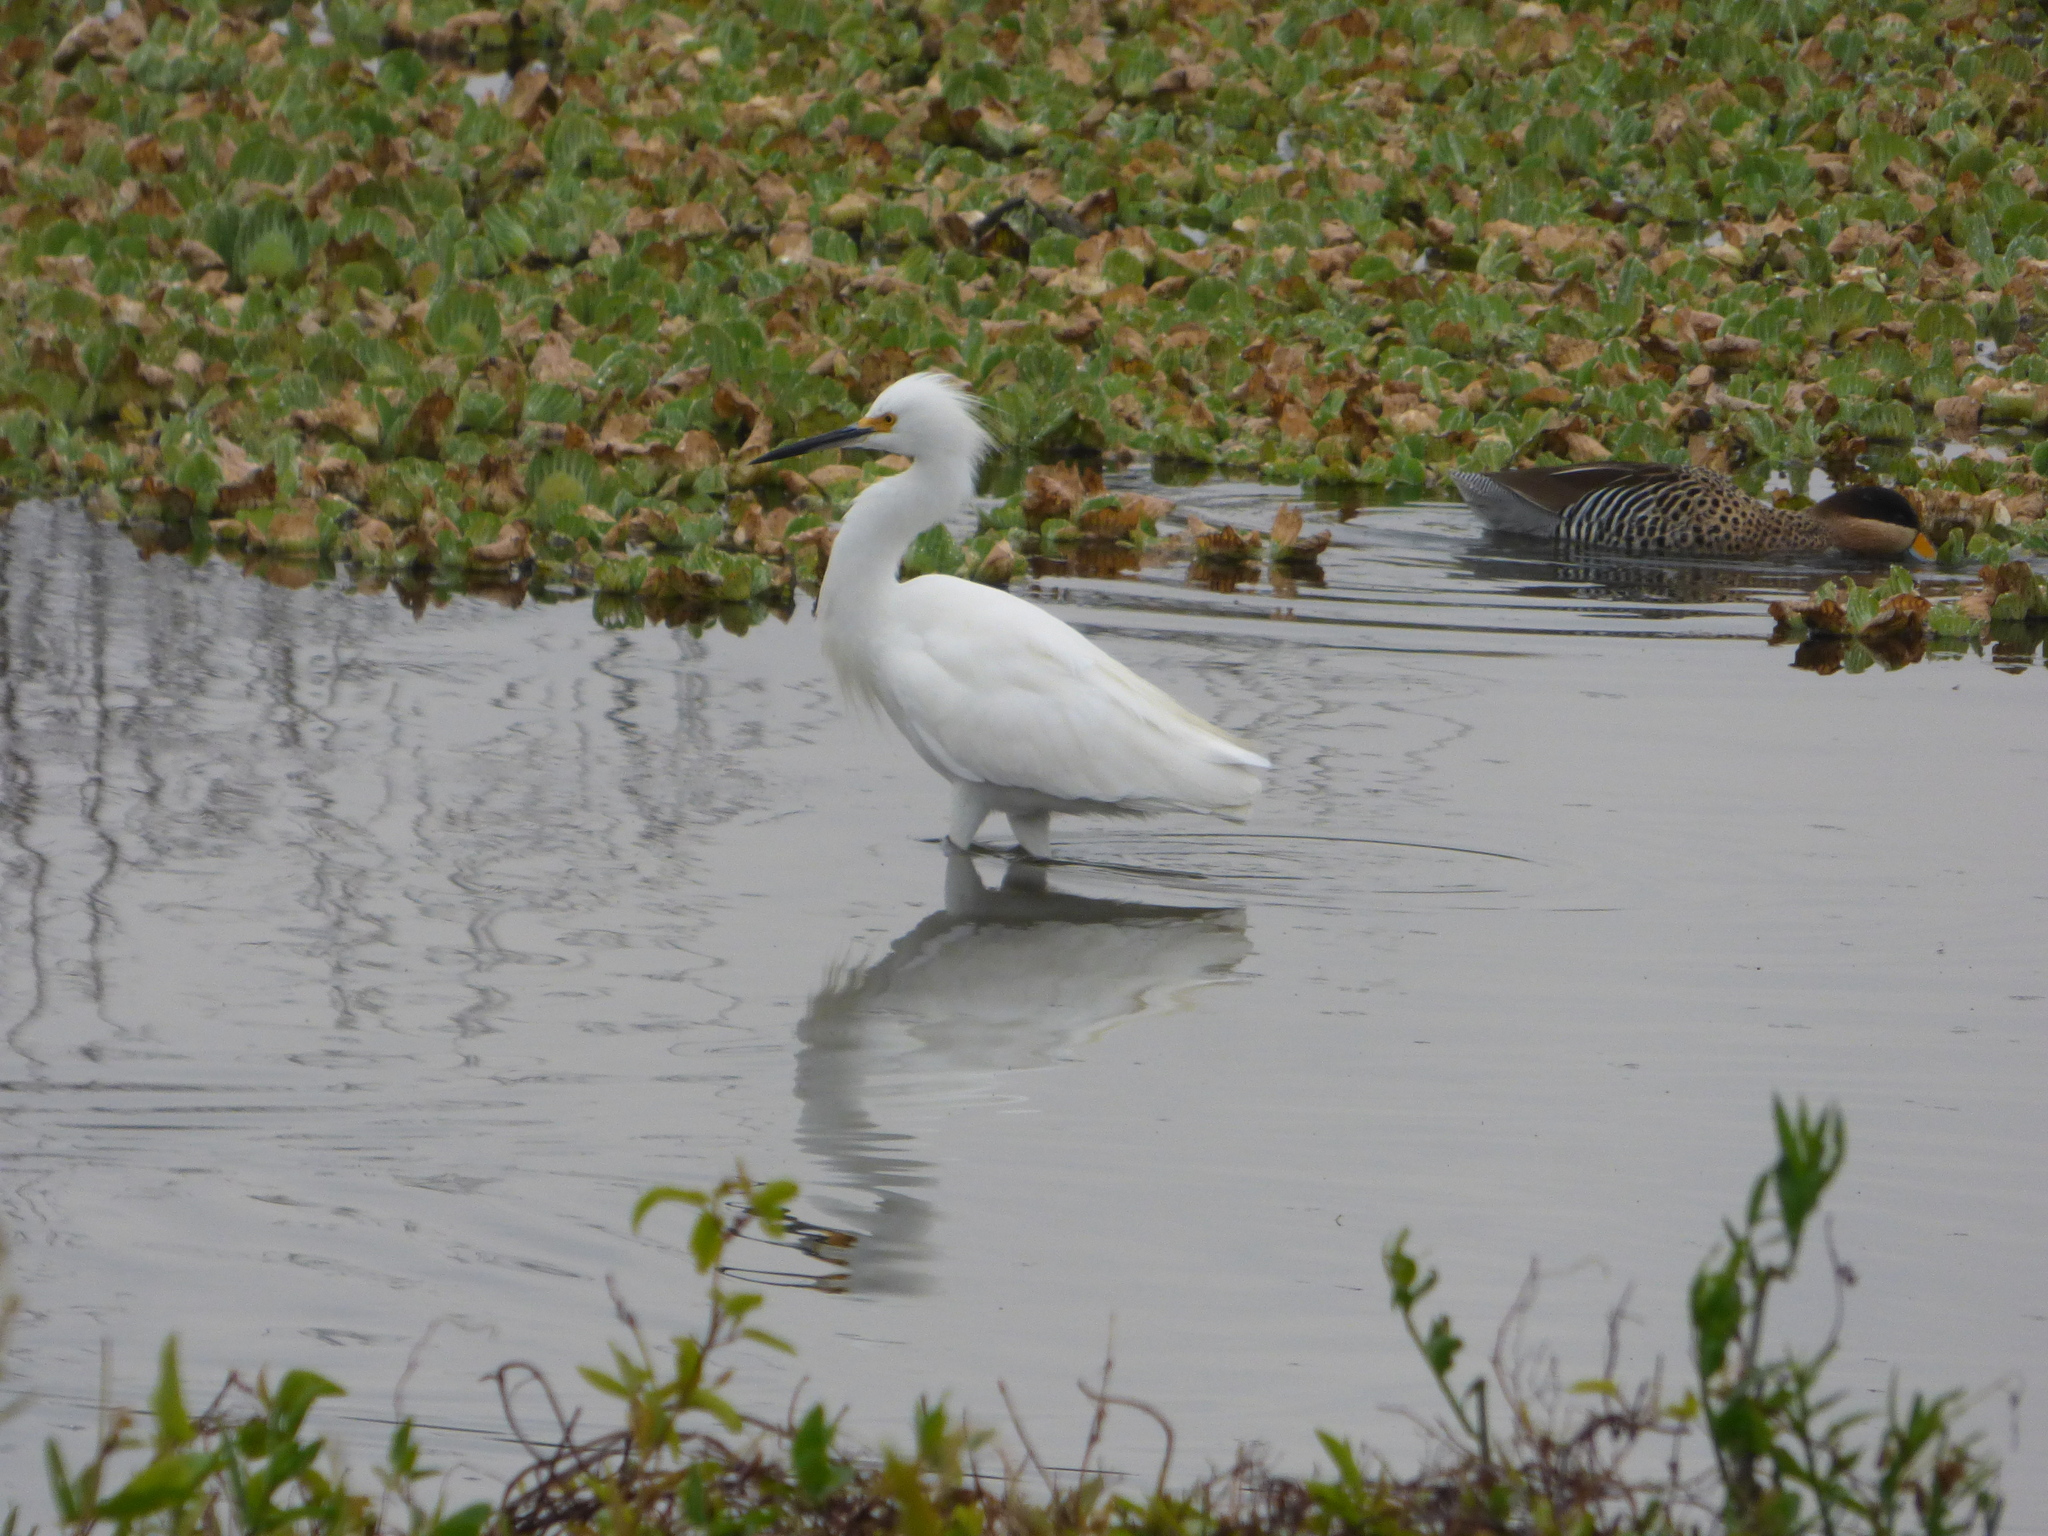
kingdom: Animalia
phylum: Chordata
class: Aves
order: Pelecaniformes
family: Ardeidae
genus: Egretta
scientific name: Egretta thula
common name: Snowy egret
